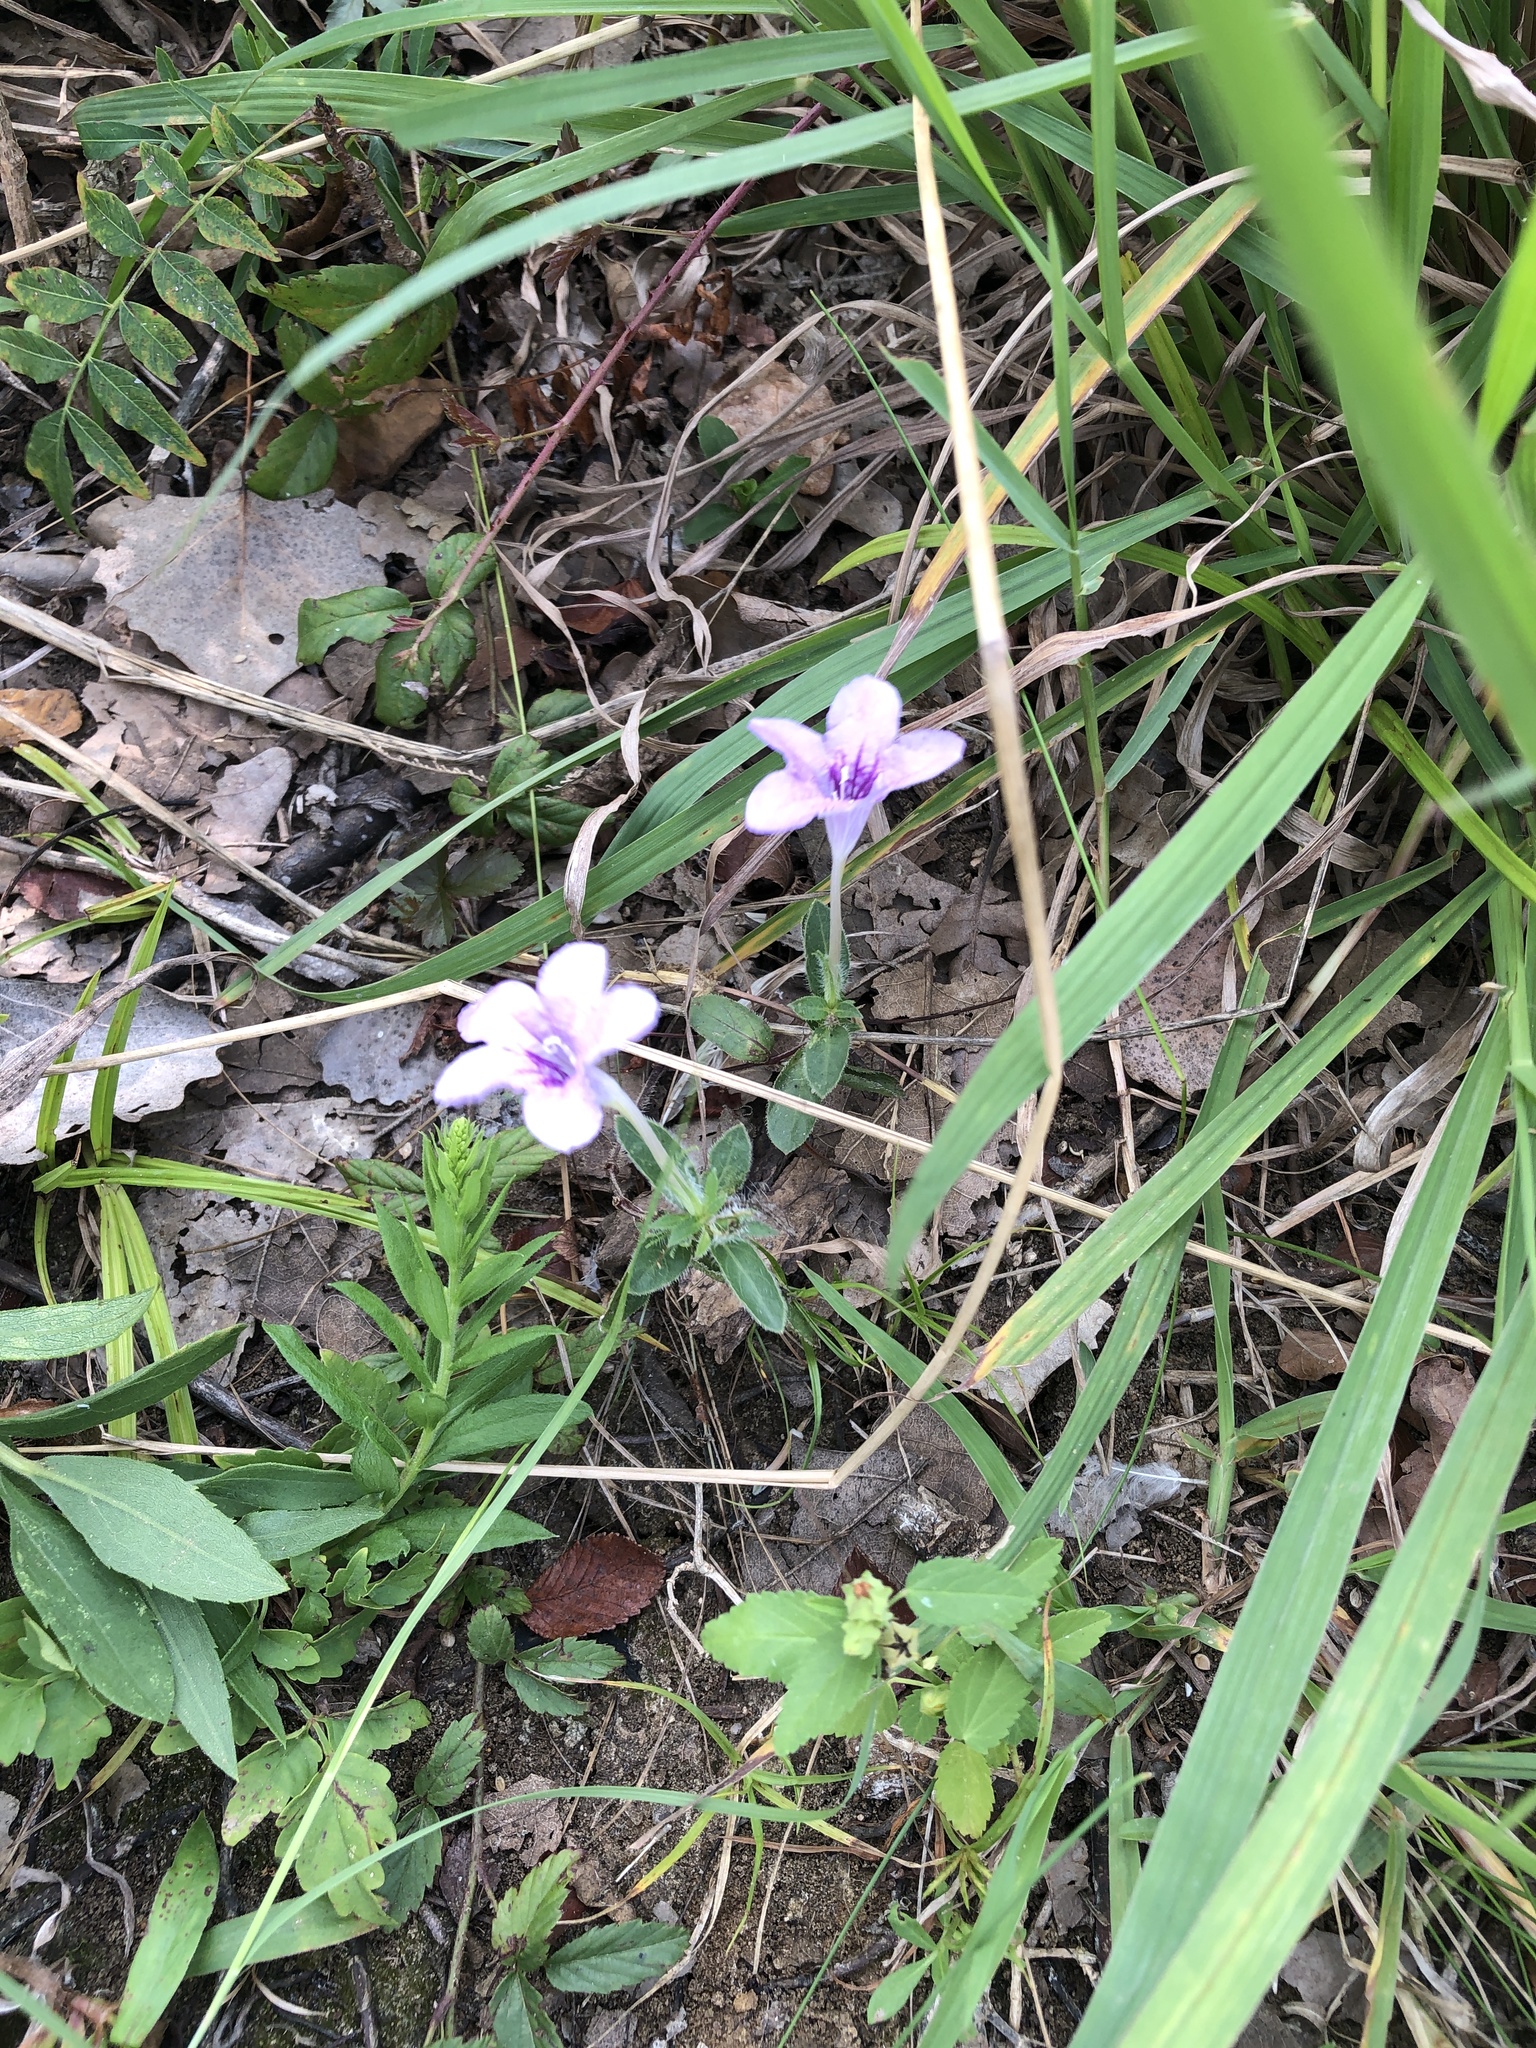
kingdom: Plantae
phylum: Tracheophyta
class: Magnoliopsida
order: Lamiales
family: Acanthaceae
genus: Ruellia
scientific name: Ruellia humilis
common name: Fringe-leaf ruellia
